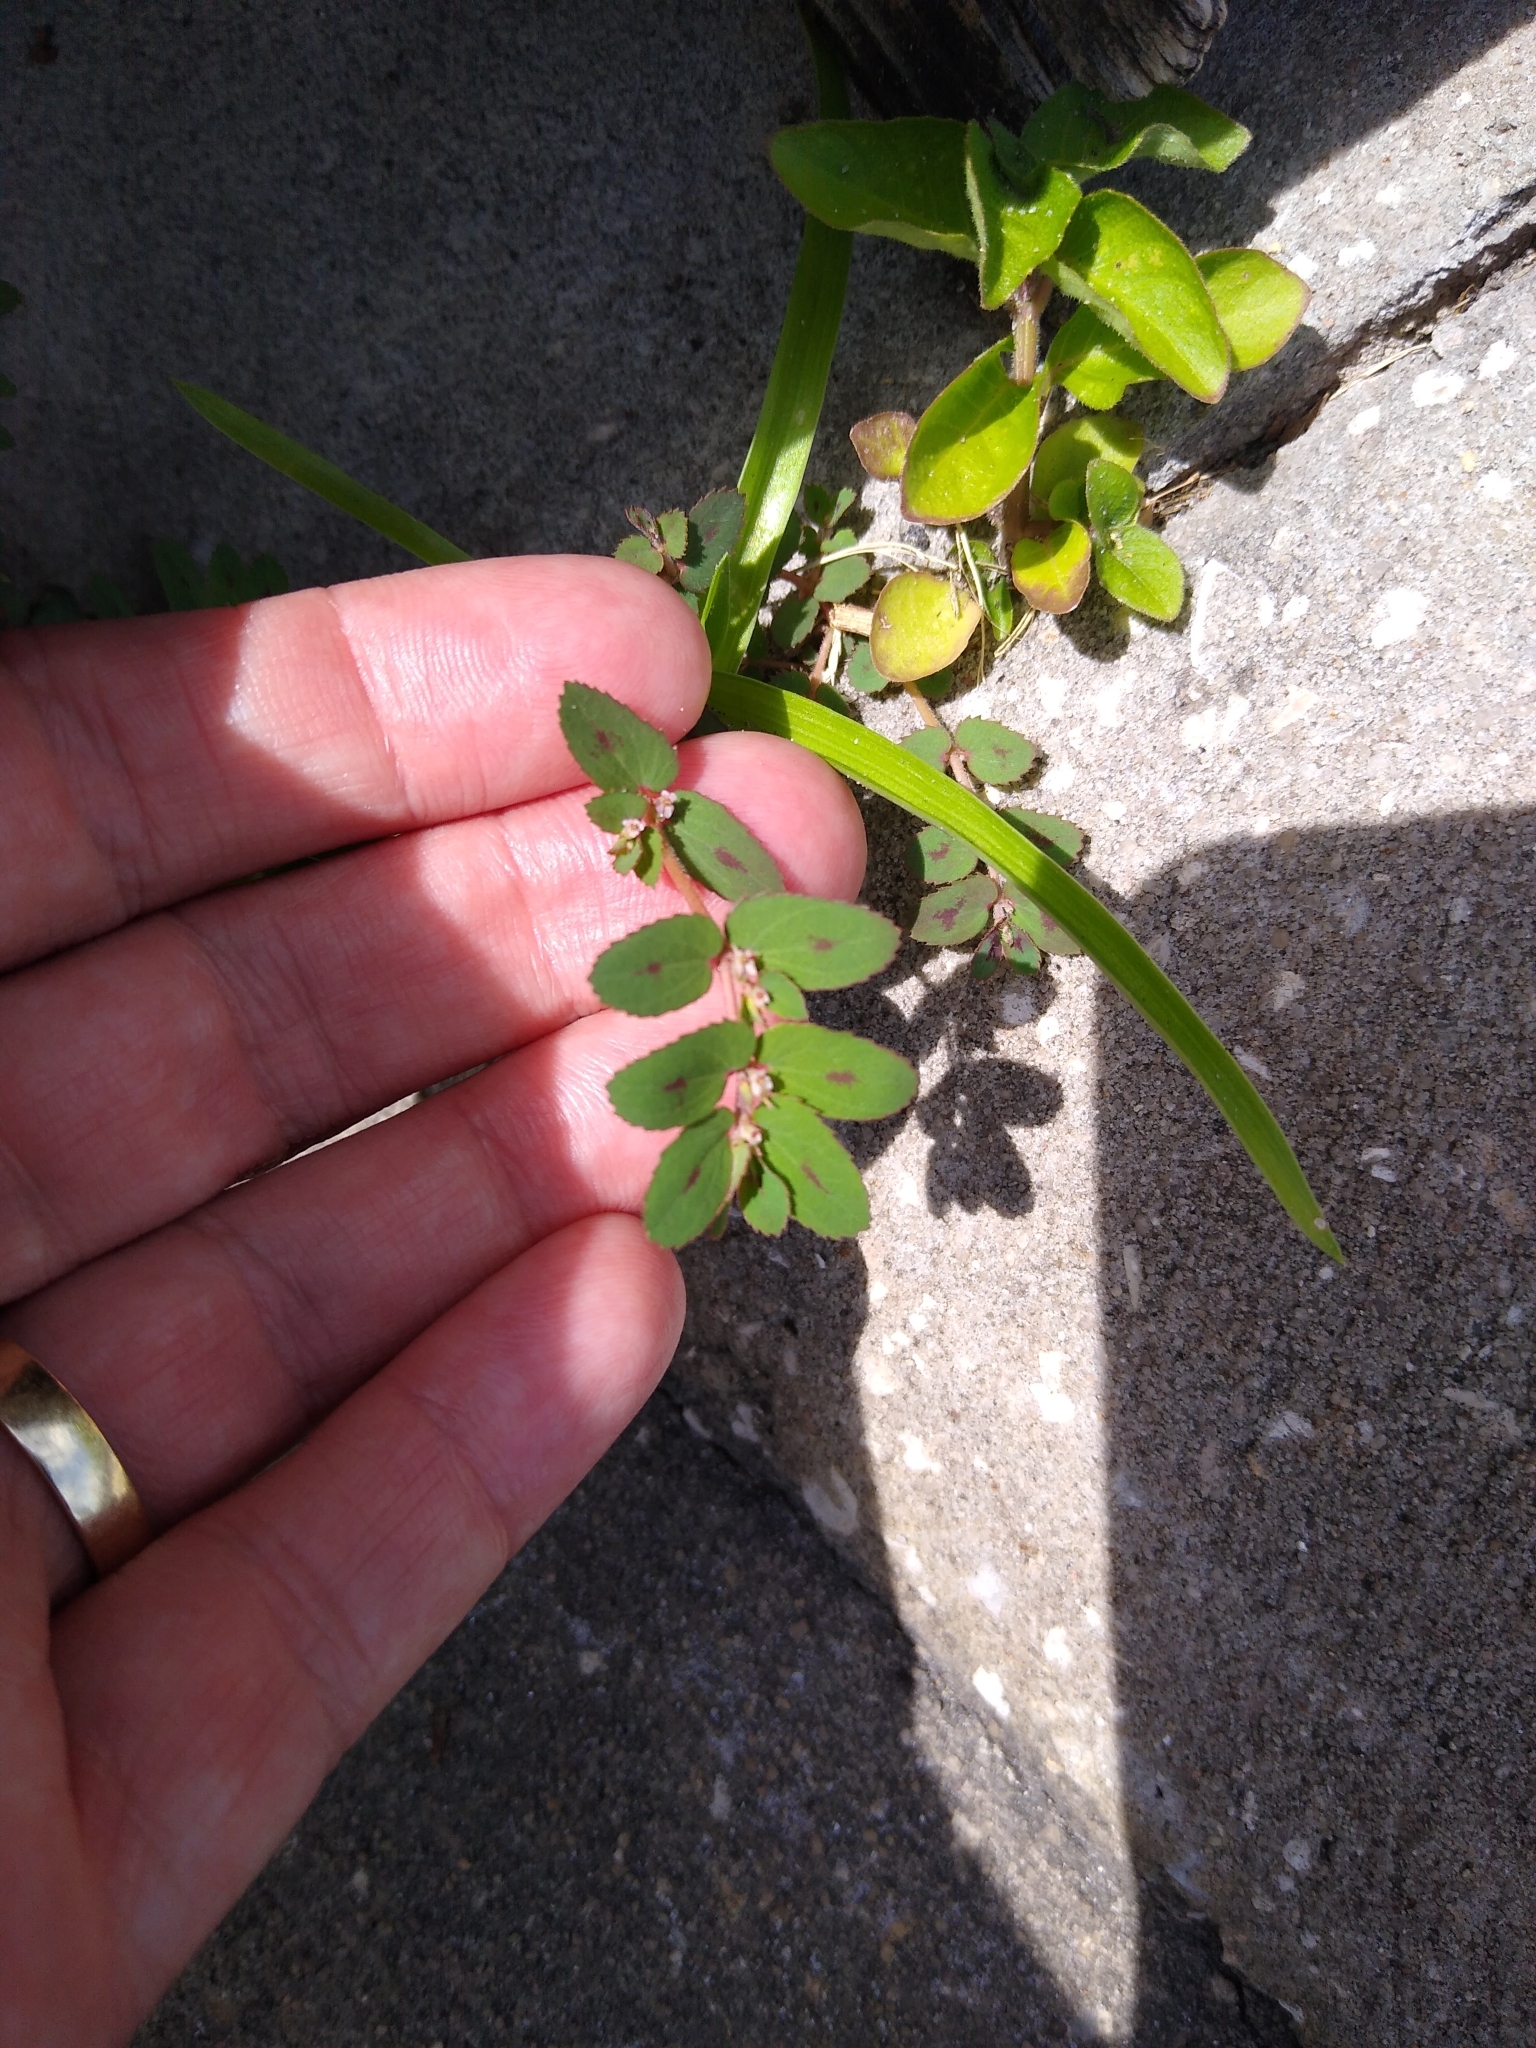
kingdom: Plantae
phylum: Tracheophyta
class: Magnoliopsida
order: Malpighiales
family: Euphorbiaceae
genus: Euphorbia
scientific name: Euphorbia thymifolia
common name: Gulf sandmat
